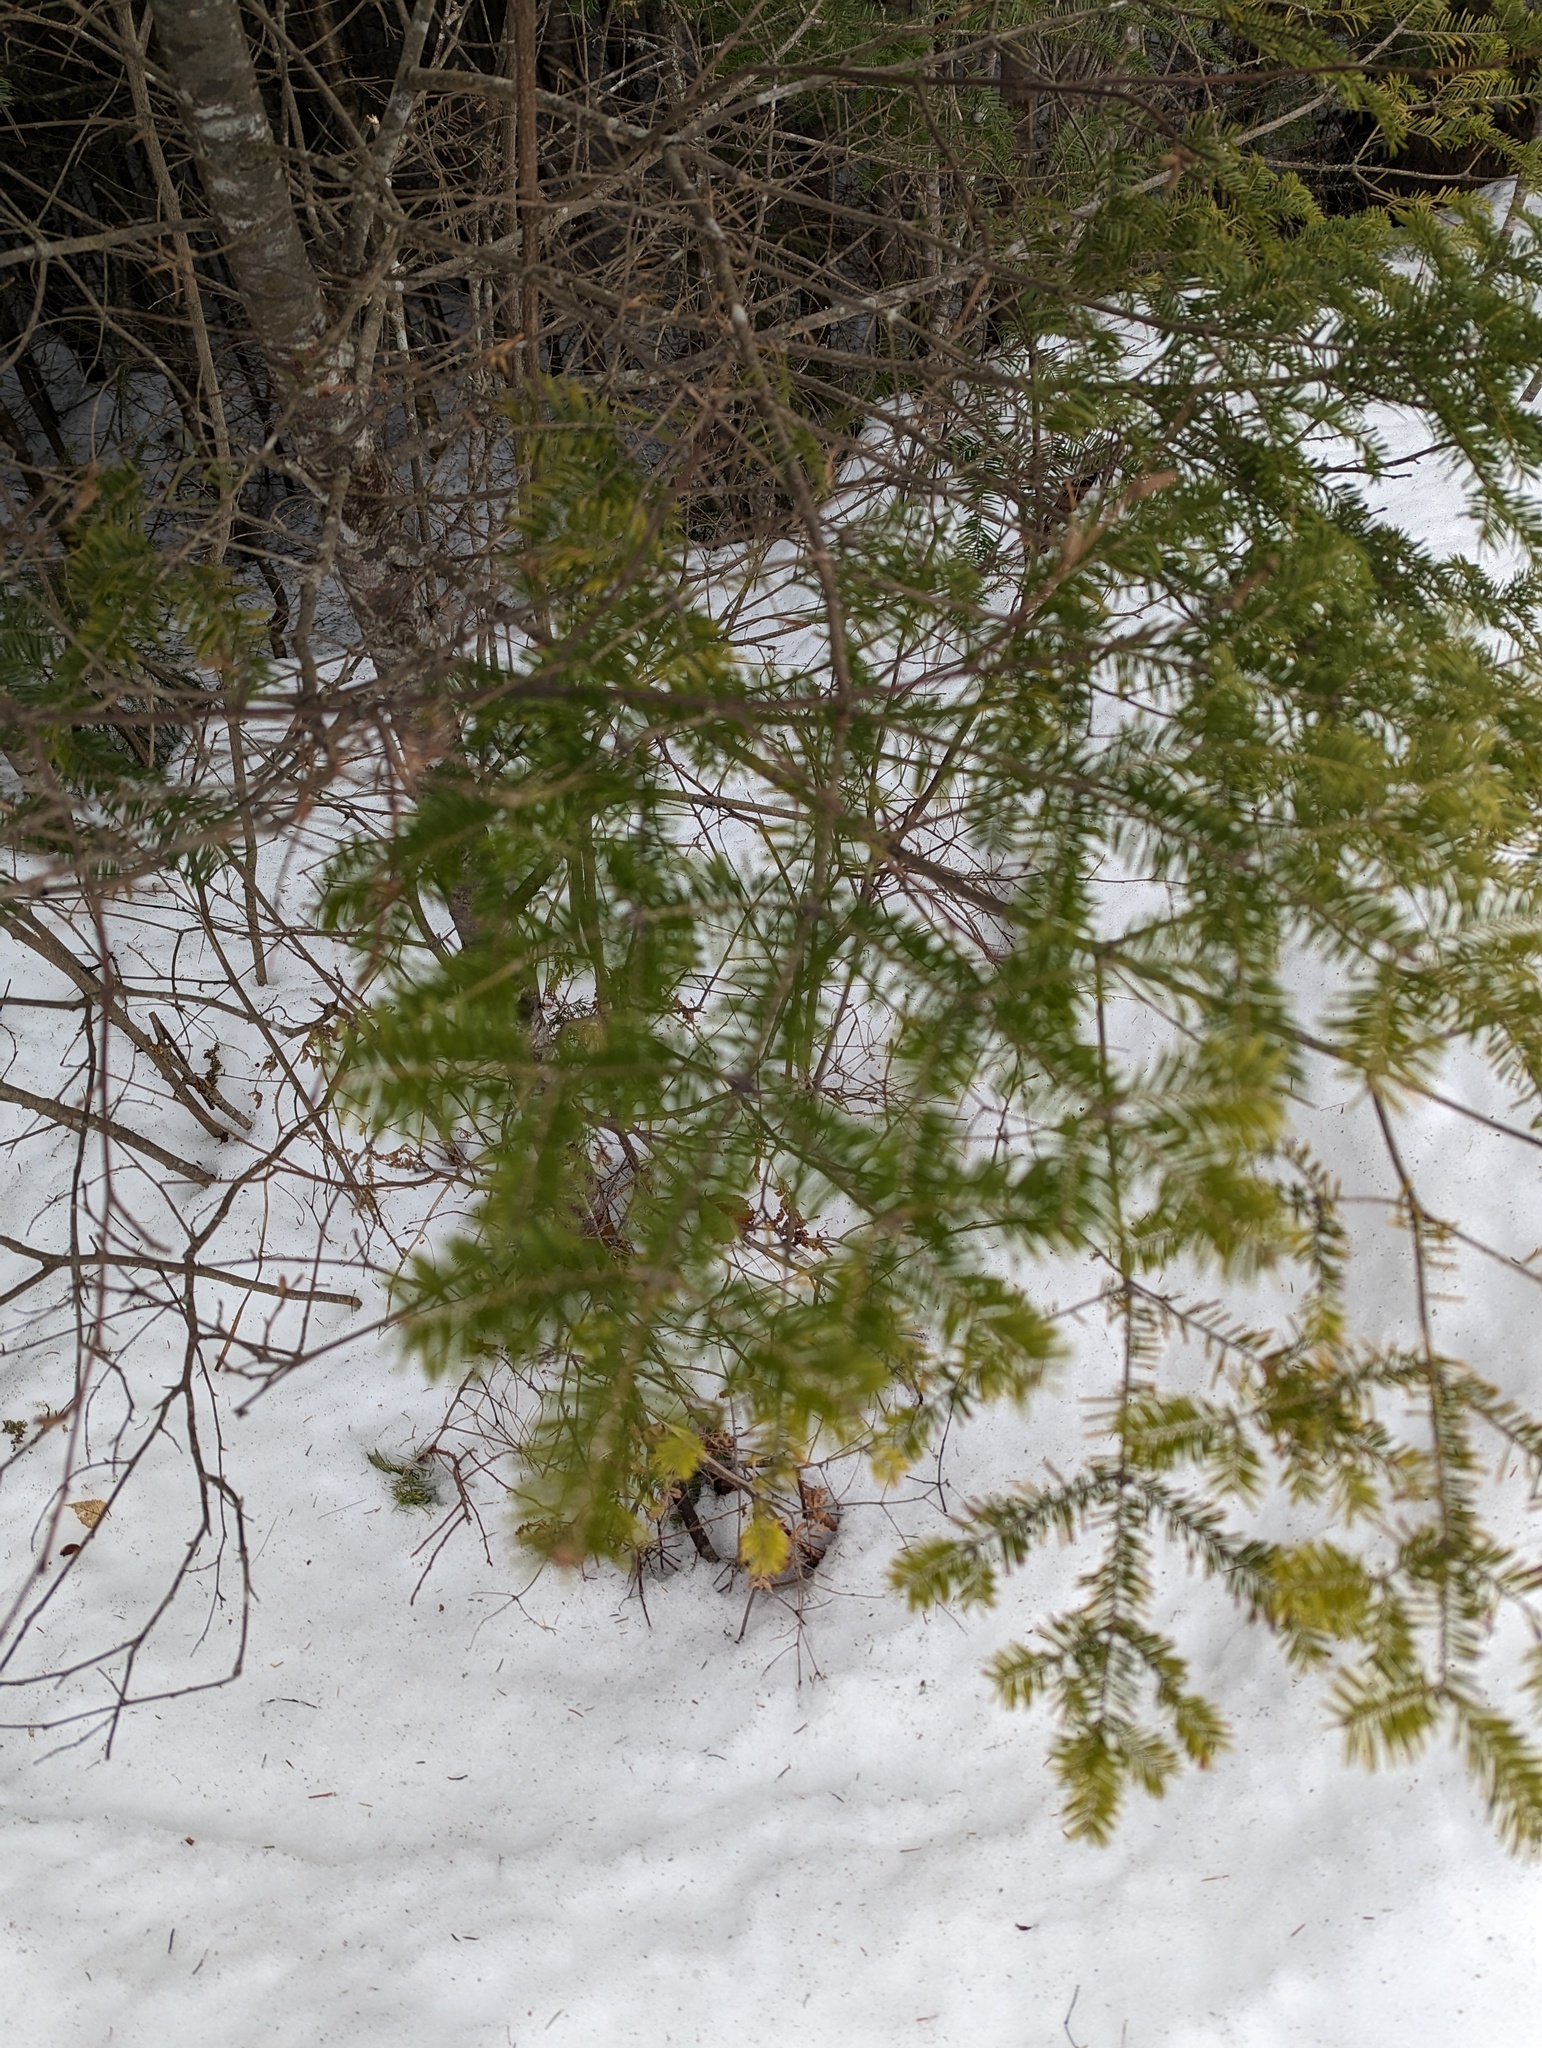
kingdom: Plantae
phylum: Tracheophyta
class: Pinopsida
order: Pinales
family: Pinaceae
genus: Abies
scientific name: Abies balsamea
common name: Balsam fir
